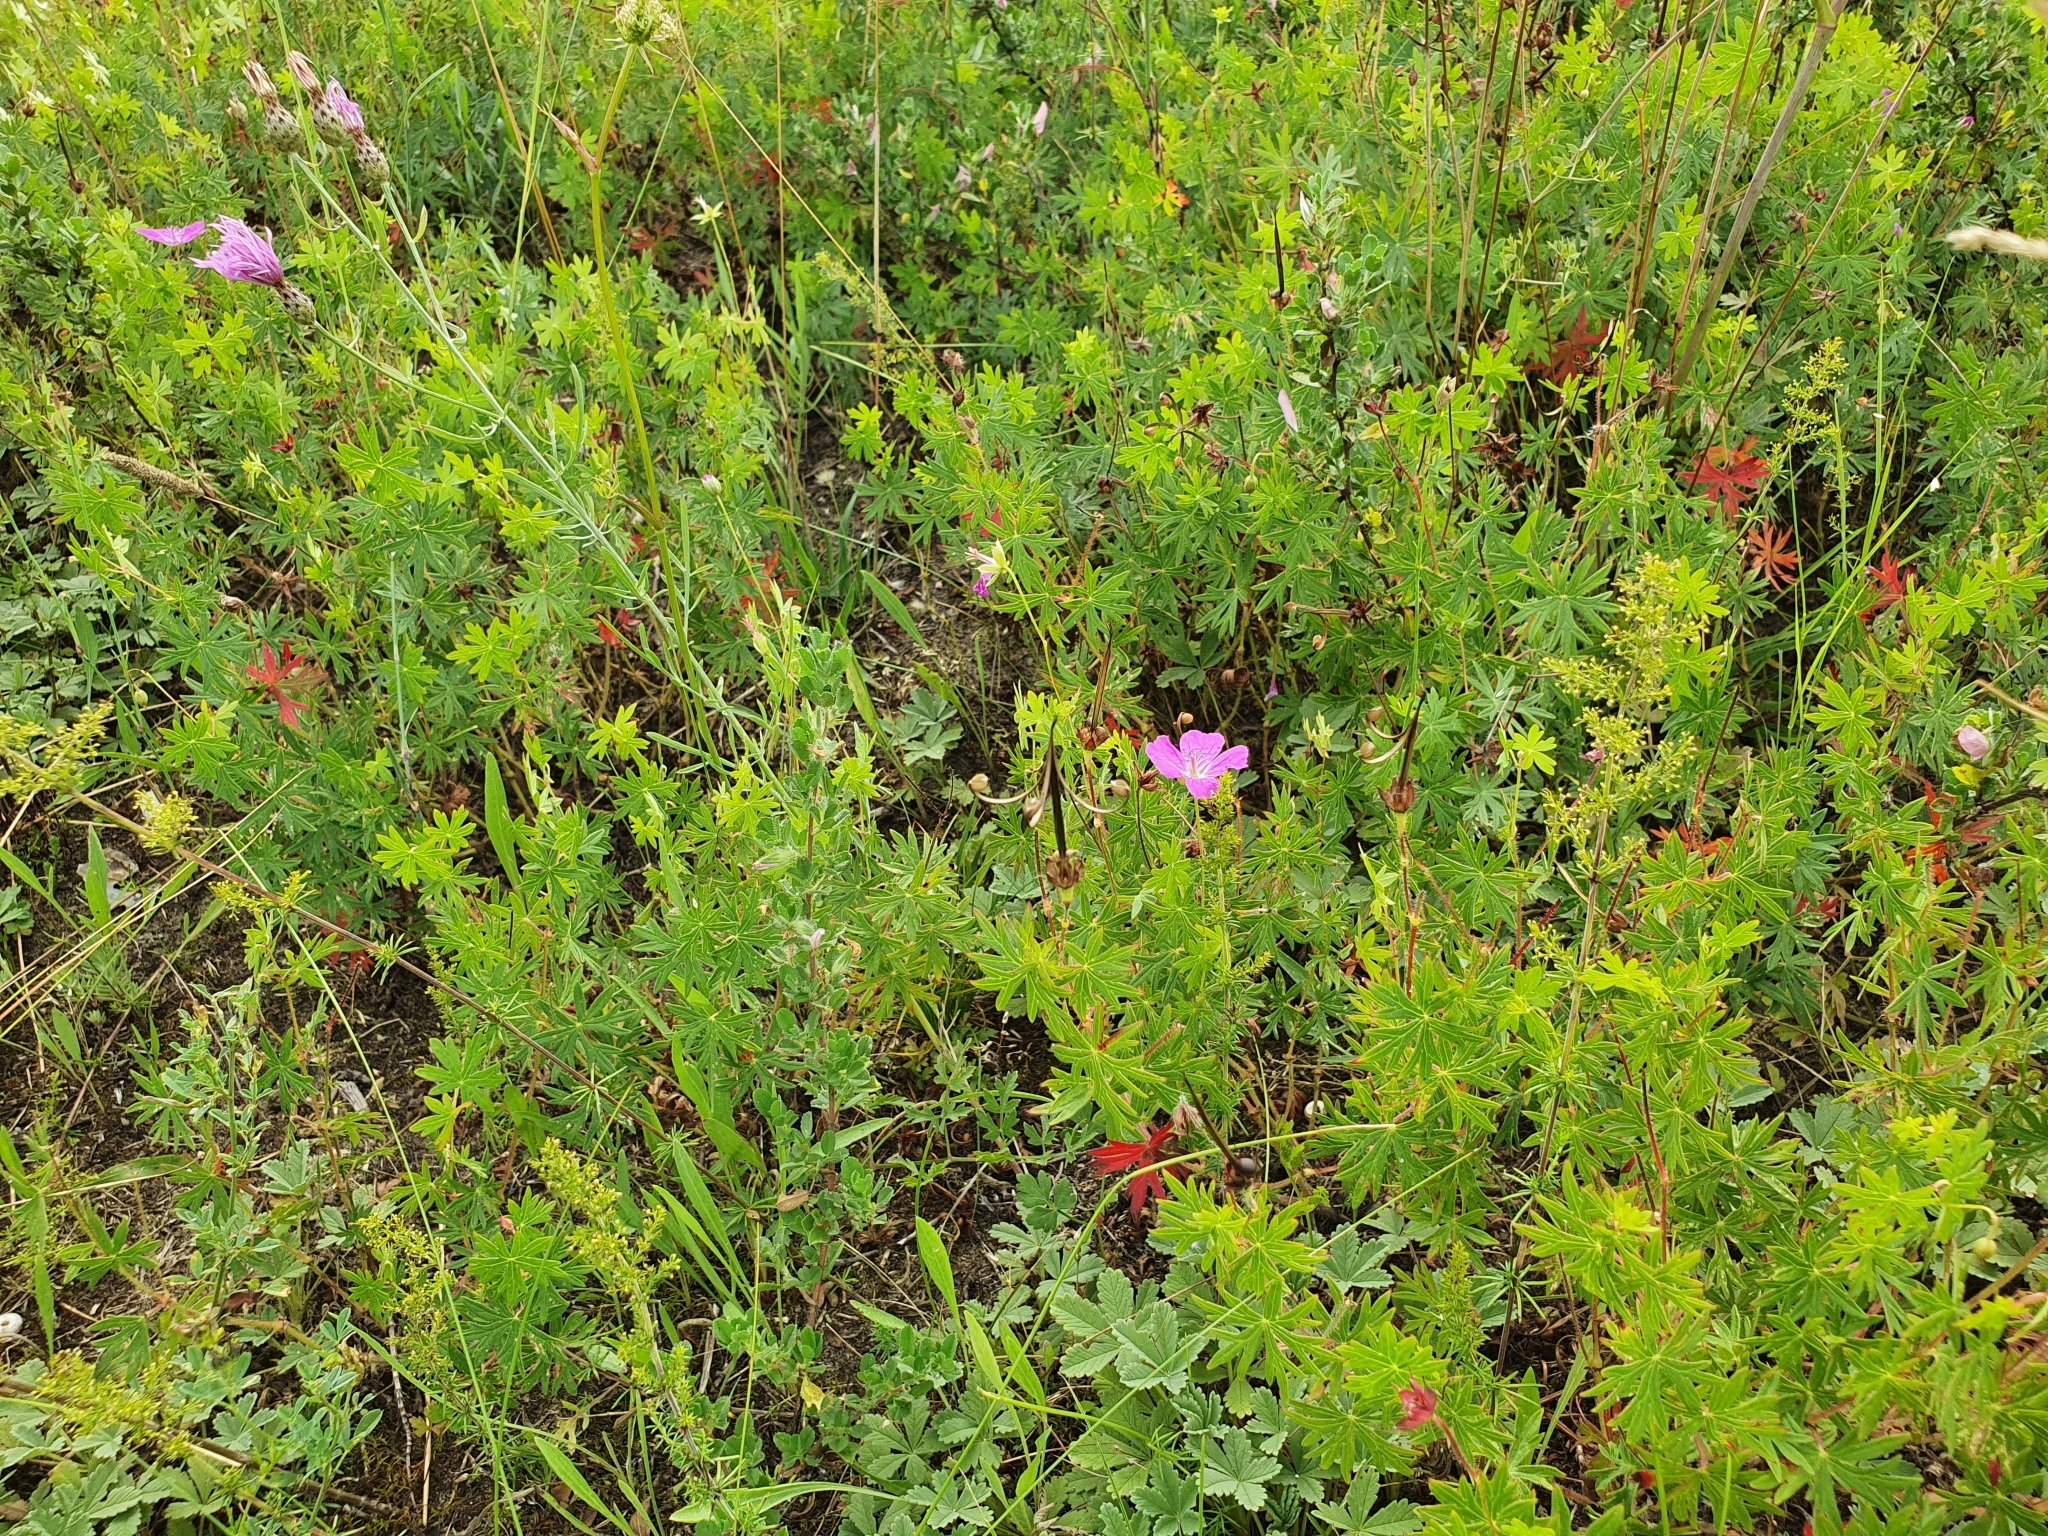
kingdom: Plantae
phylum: Tracheophyta
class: Magnoliopsida
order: Geraniales
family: Geraniaceae
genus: Geranium
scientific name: Geranium sanguineum
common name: Bloody crane's-bill
